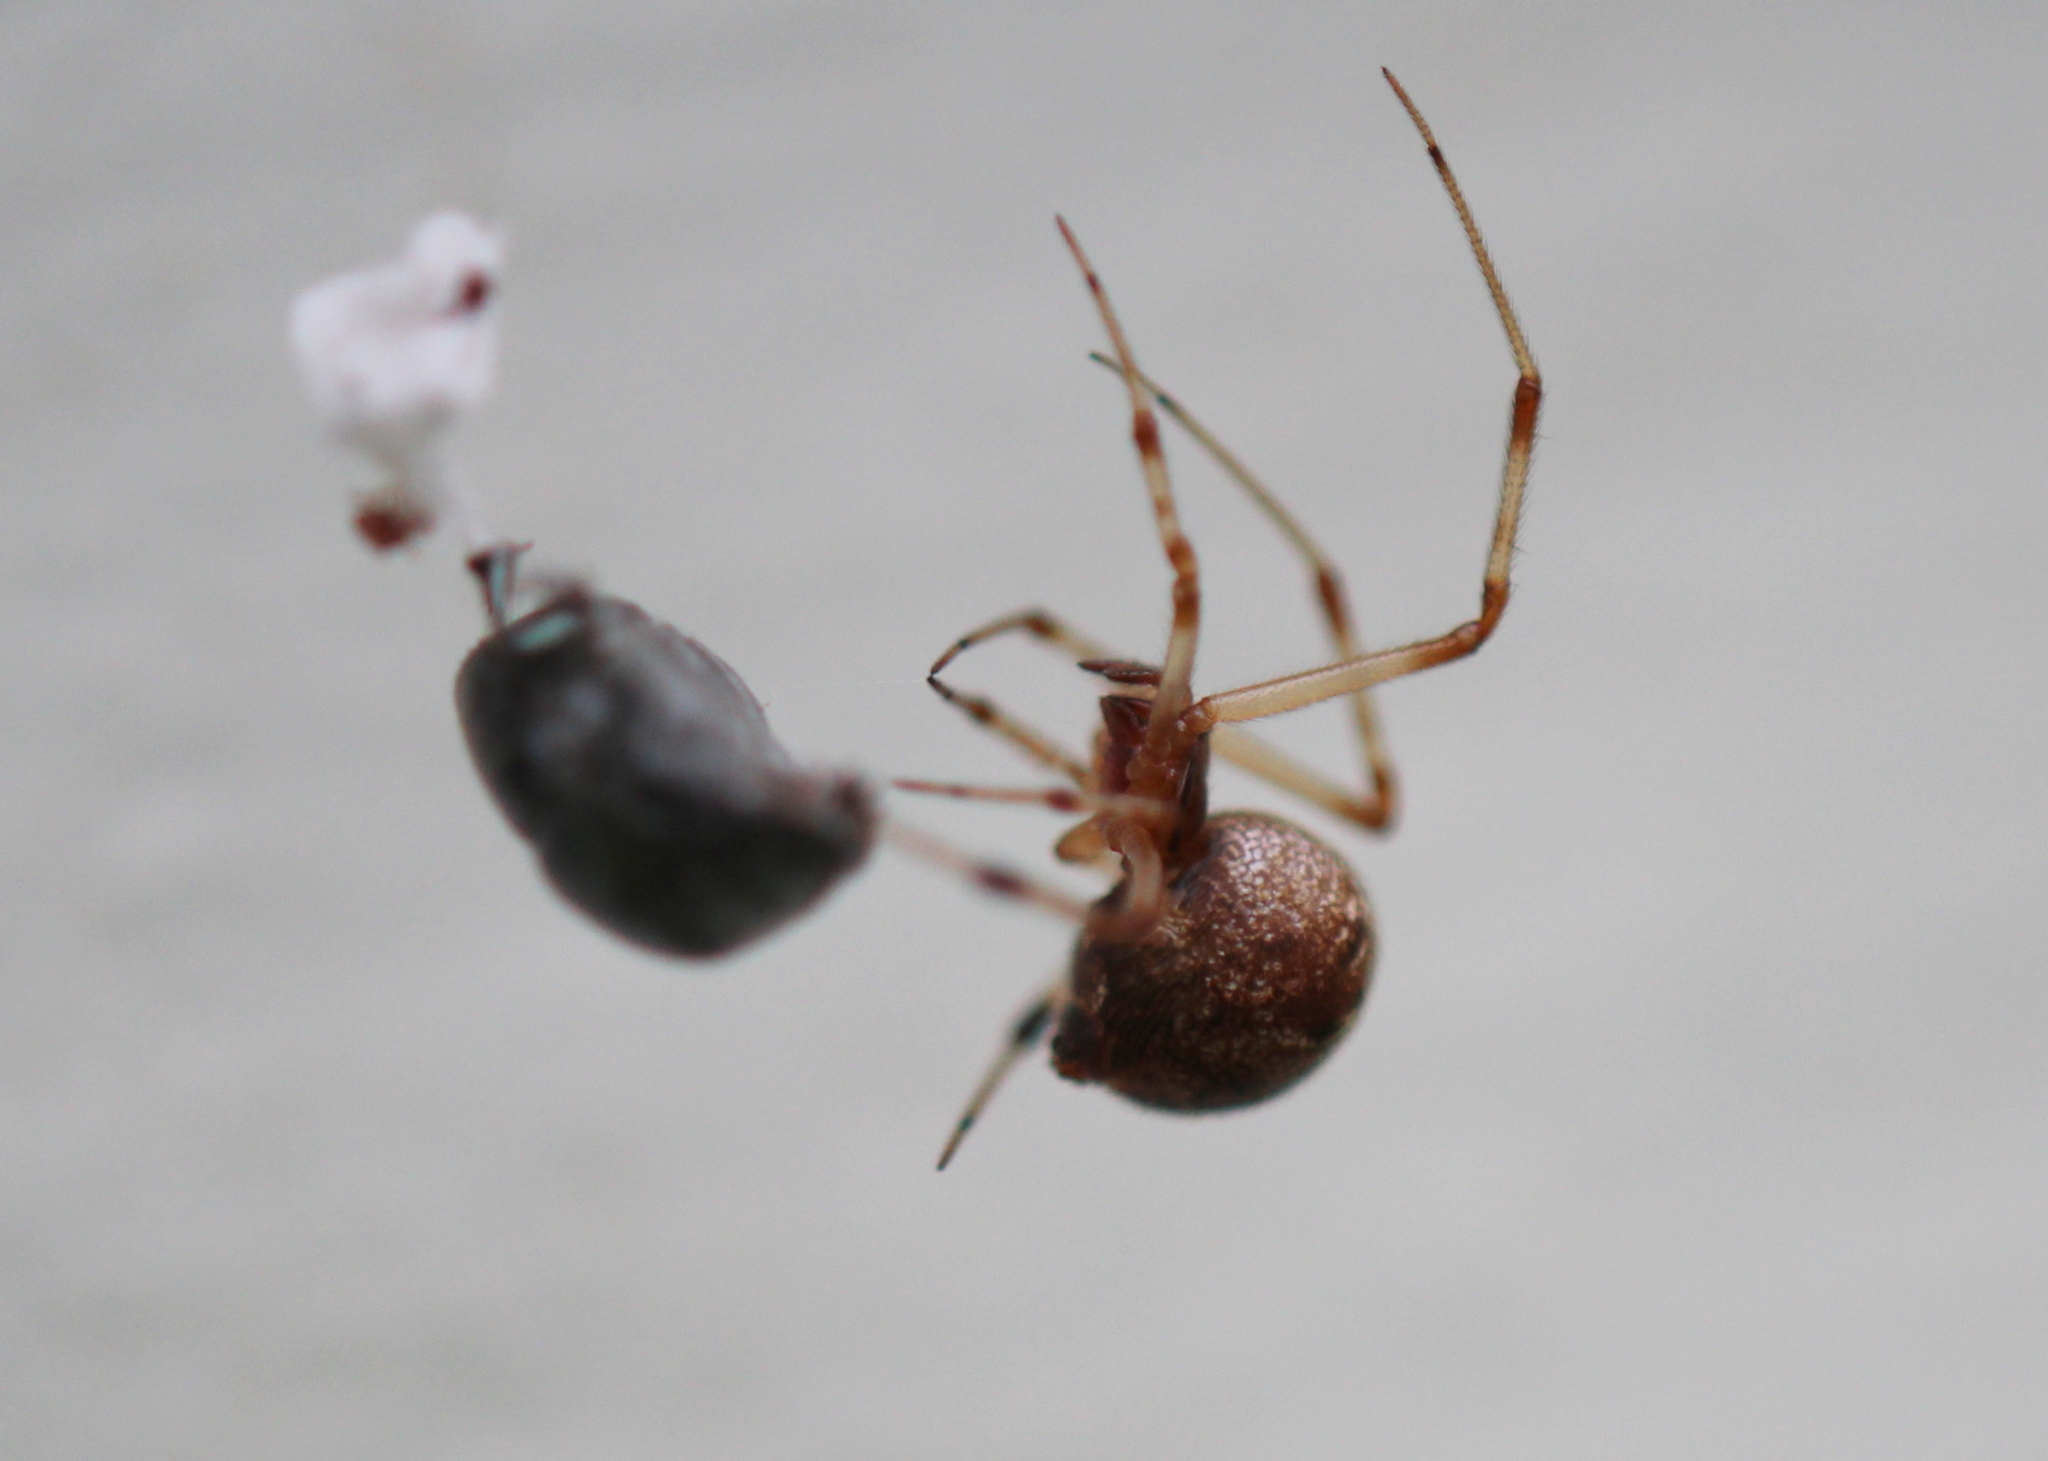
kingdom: Animalia
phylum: Arthropoda
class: Arachnida
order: Araneae
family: Theridiidae
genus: Parasteatoda
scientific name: Parasteatoda tepidariorum
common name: Common house spider
